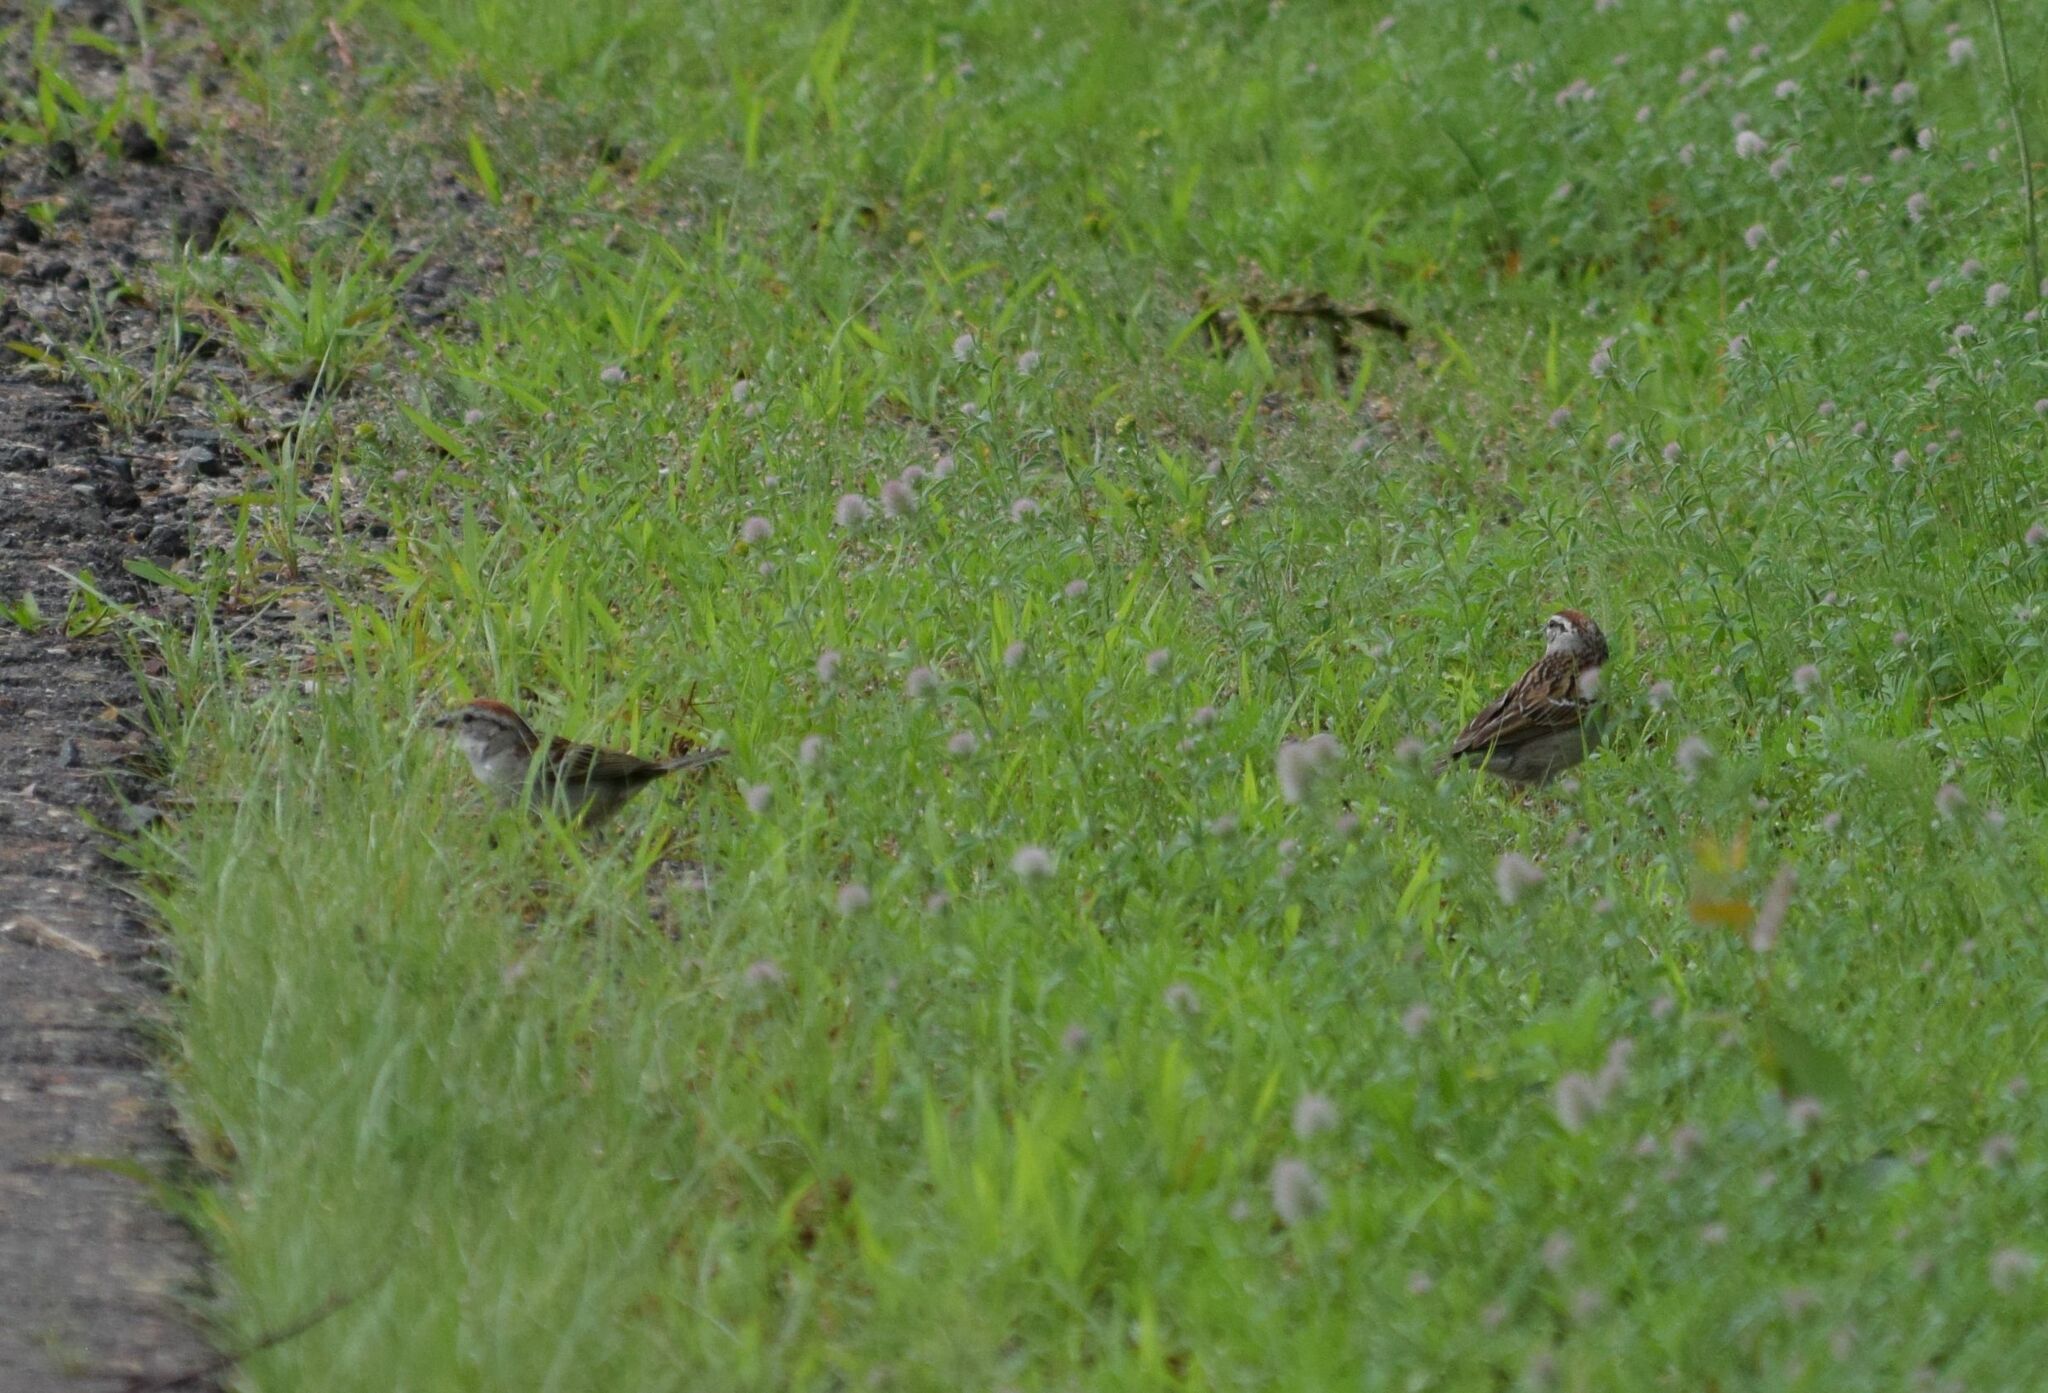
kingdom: Animalia
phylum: Chordata
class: Aves
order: Passeriformes
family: Passerellidae
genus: Spizella
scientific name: Spizella passerina
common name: Chipping sparrow
